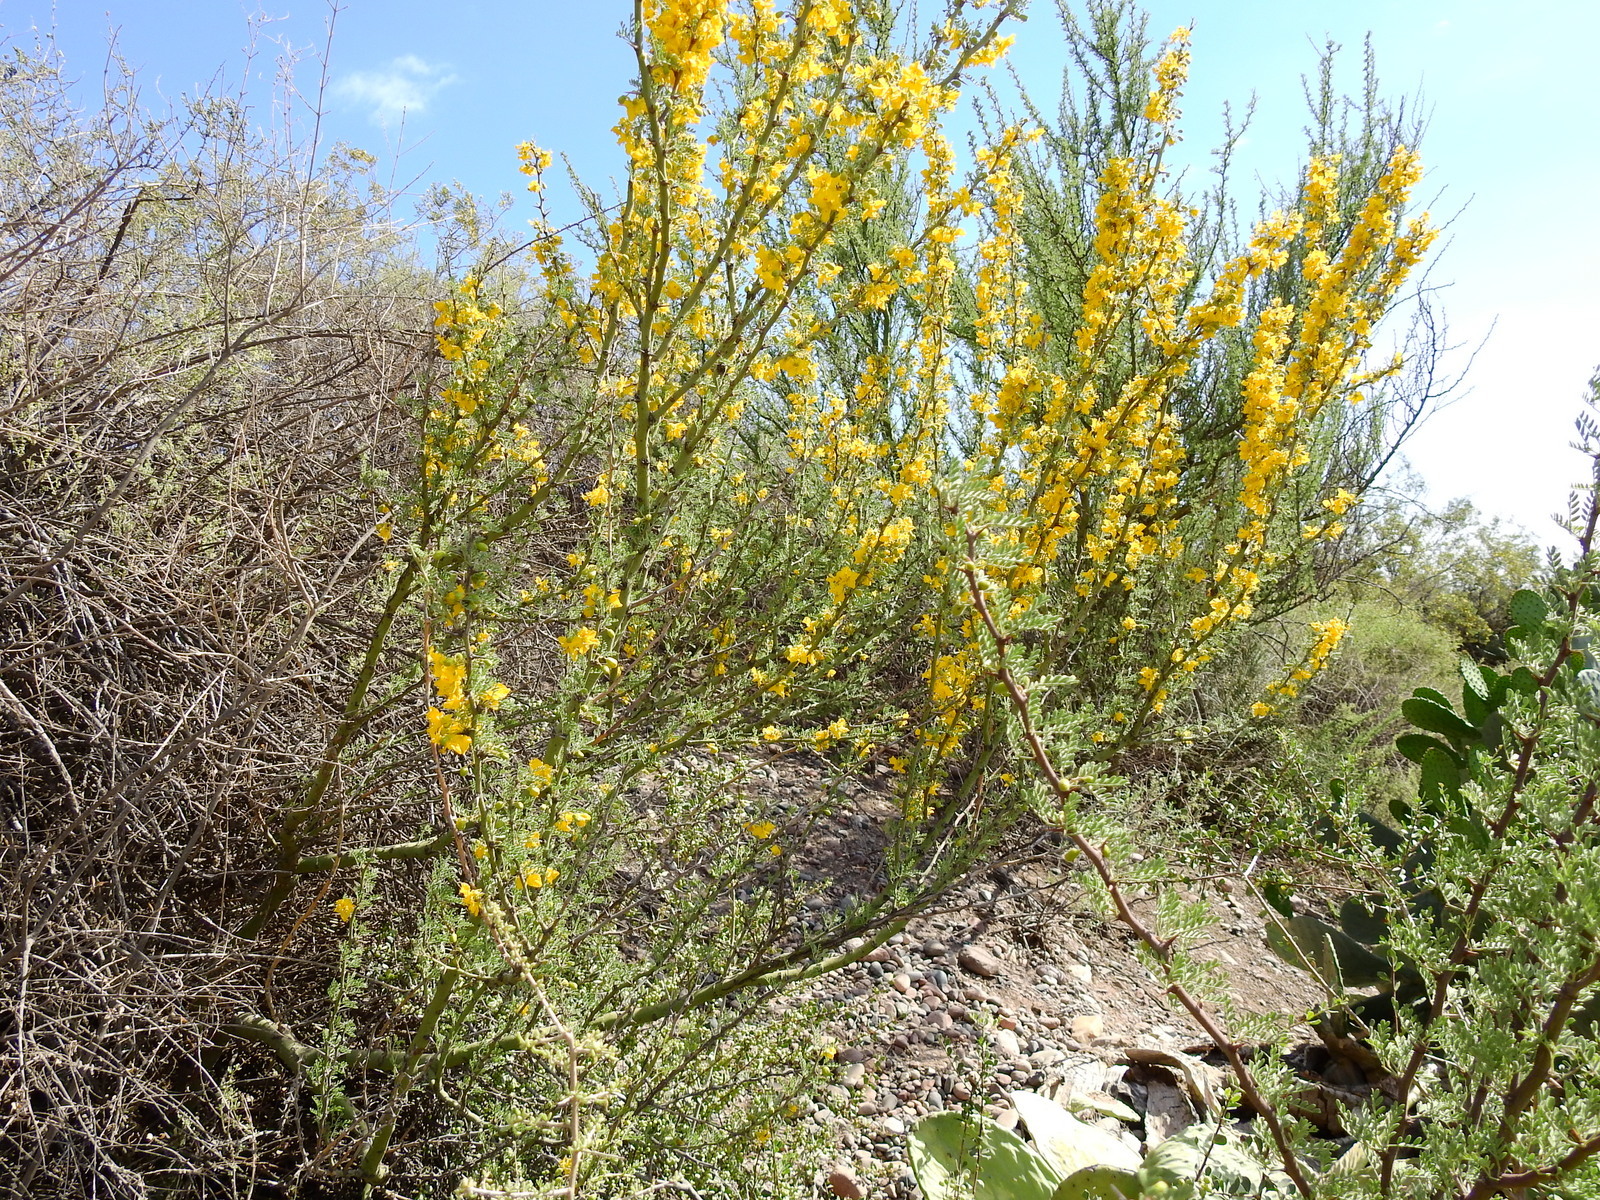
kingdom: Plantae
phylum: Tracheophyta
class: Magnoliopsida
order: Fabales
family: Fabaceae
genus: Parkinsonia
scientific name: Parkinsonia praecox
